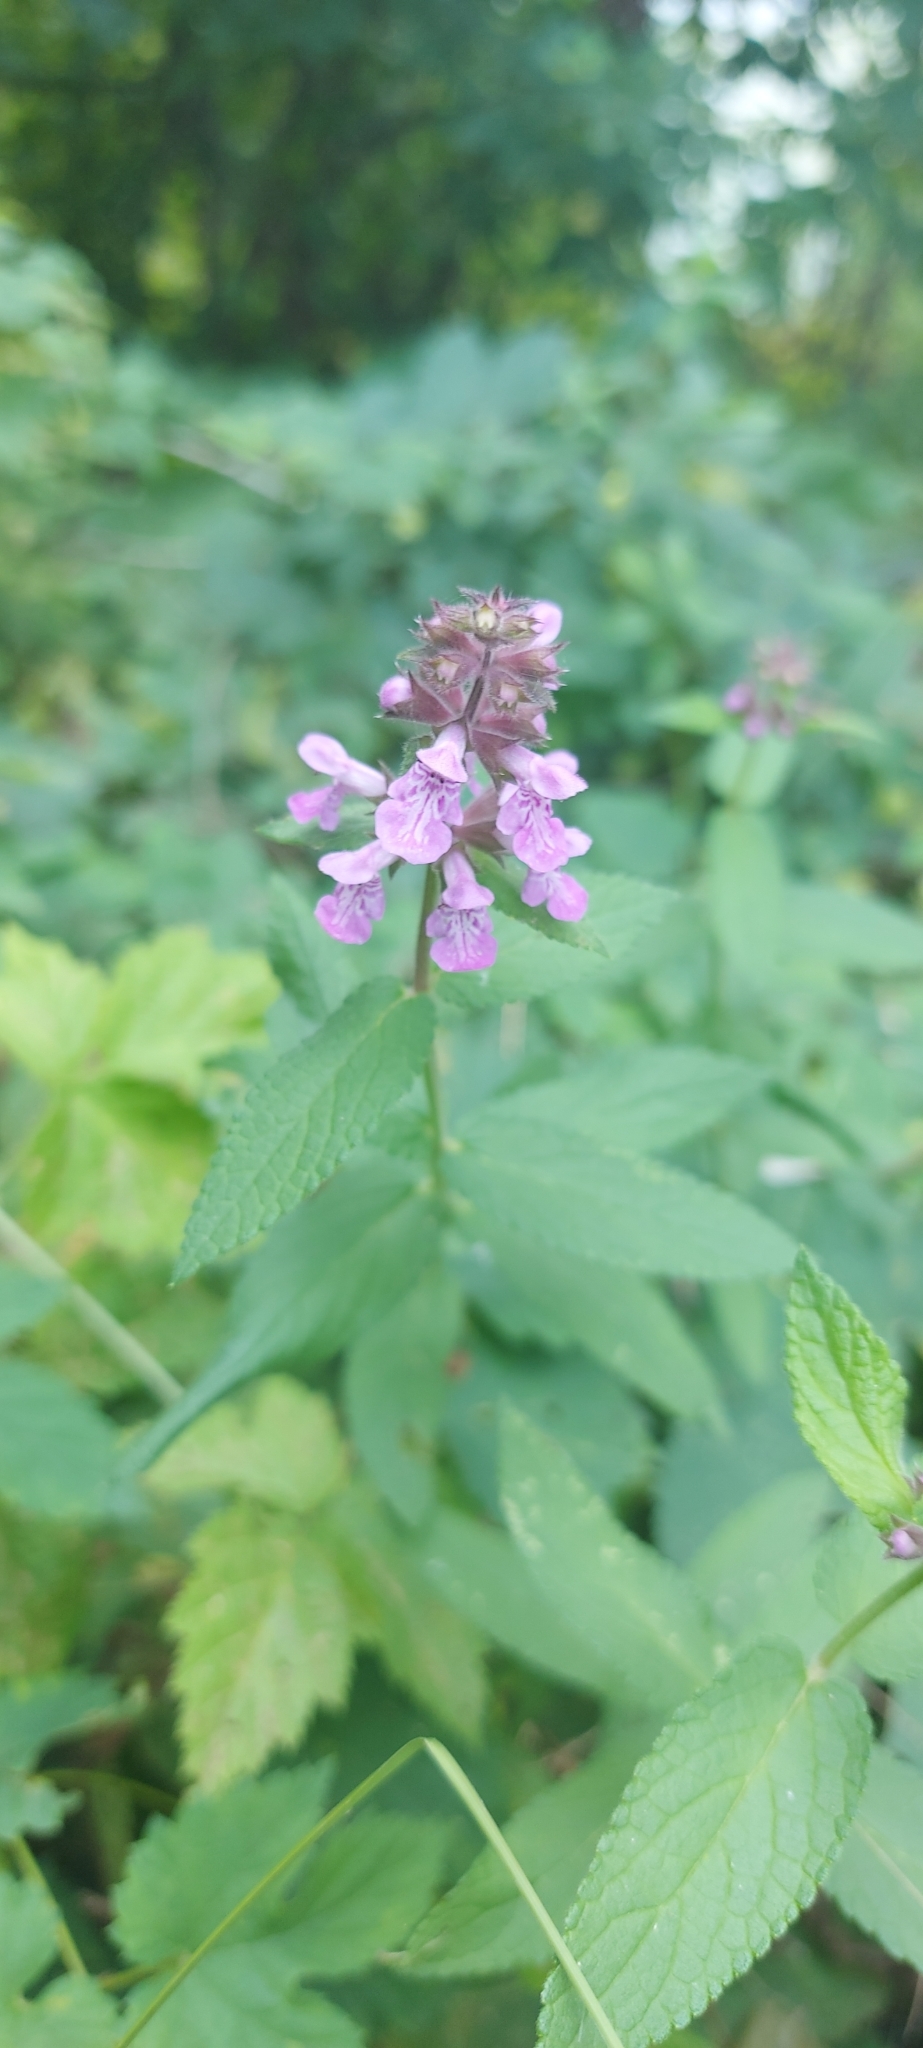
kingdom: Plantae
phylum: Tracheophyta
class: Magnoliopsida
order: Lamiales
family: Lamiaceae
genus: Stachys
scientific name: Stachys palustris
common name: Marsh woundwort
